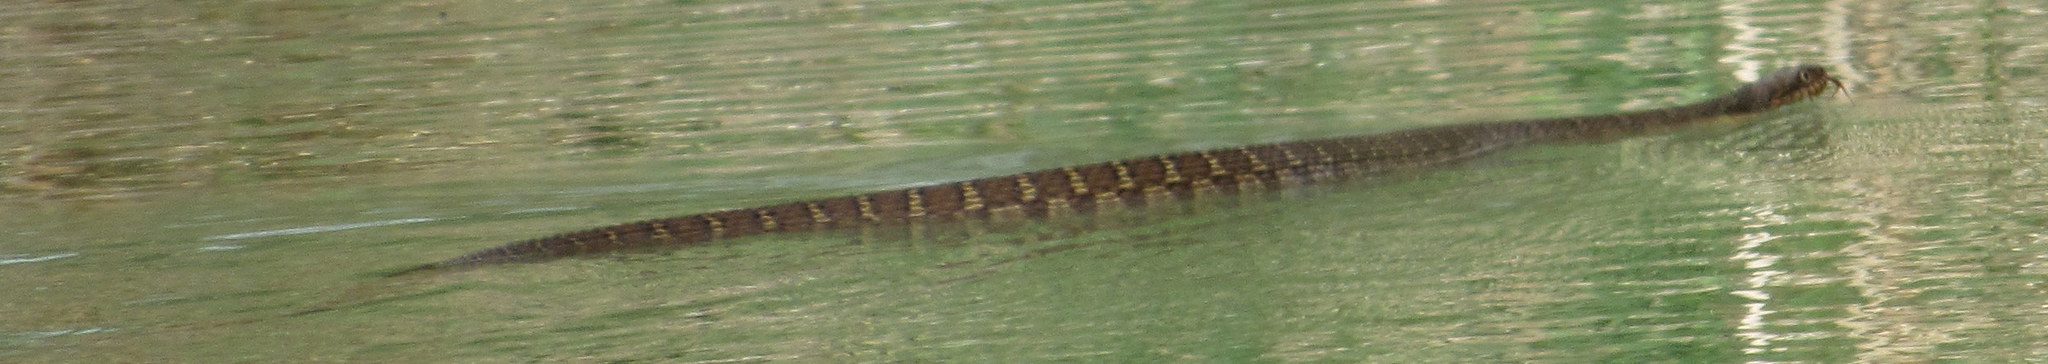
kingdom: Animalia
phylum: Chordata
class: Squamata
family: Colubridae
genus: Nerodia
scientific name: Nerodia erythrogaster
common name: Plainbelly water snake
